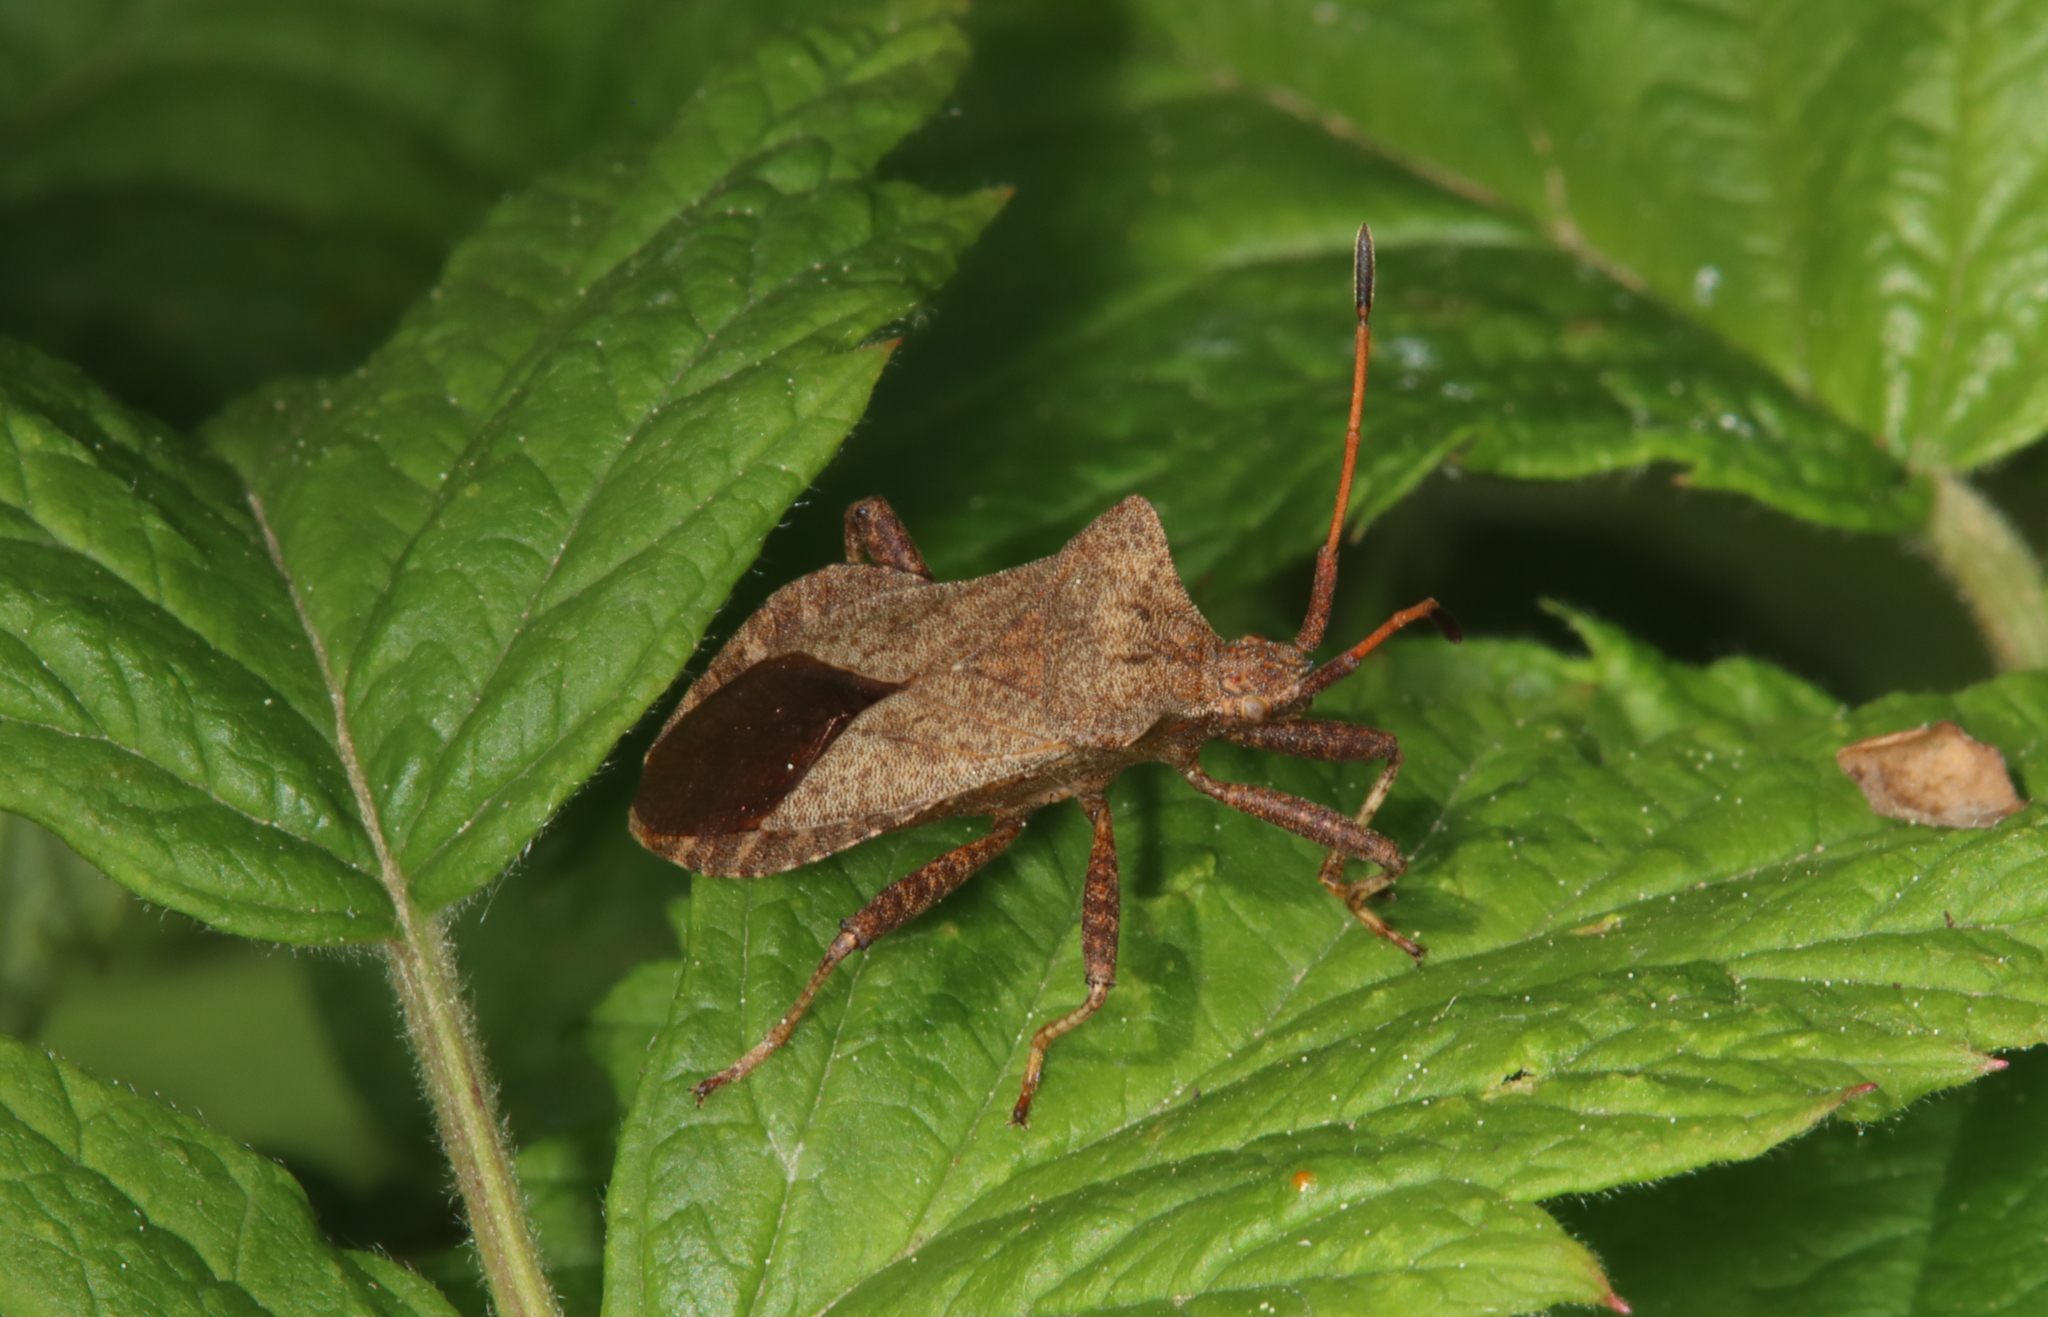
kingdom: Animalia
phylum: Arthropoda
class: Insecta
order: Hemiptera
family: Coreidae
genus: Coreus
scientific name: Coreus marginatus
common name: Dock bug
